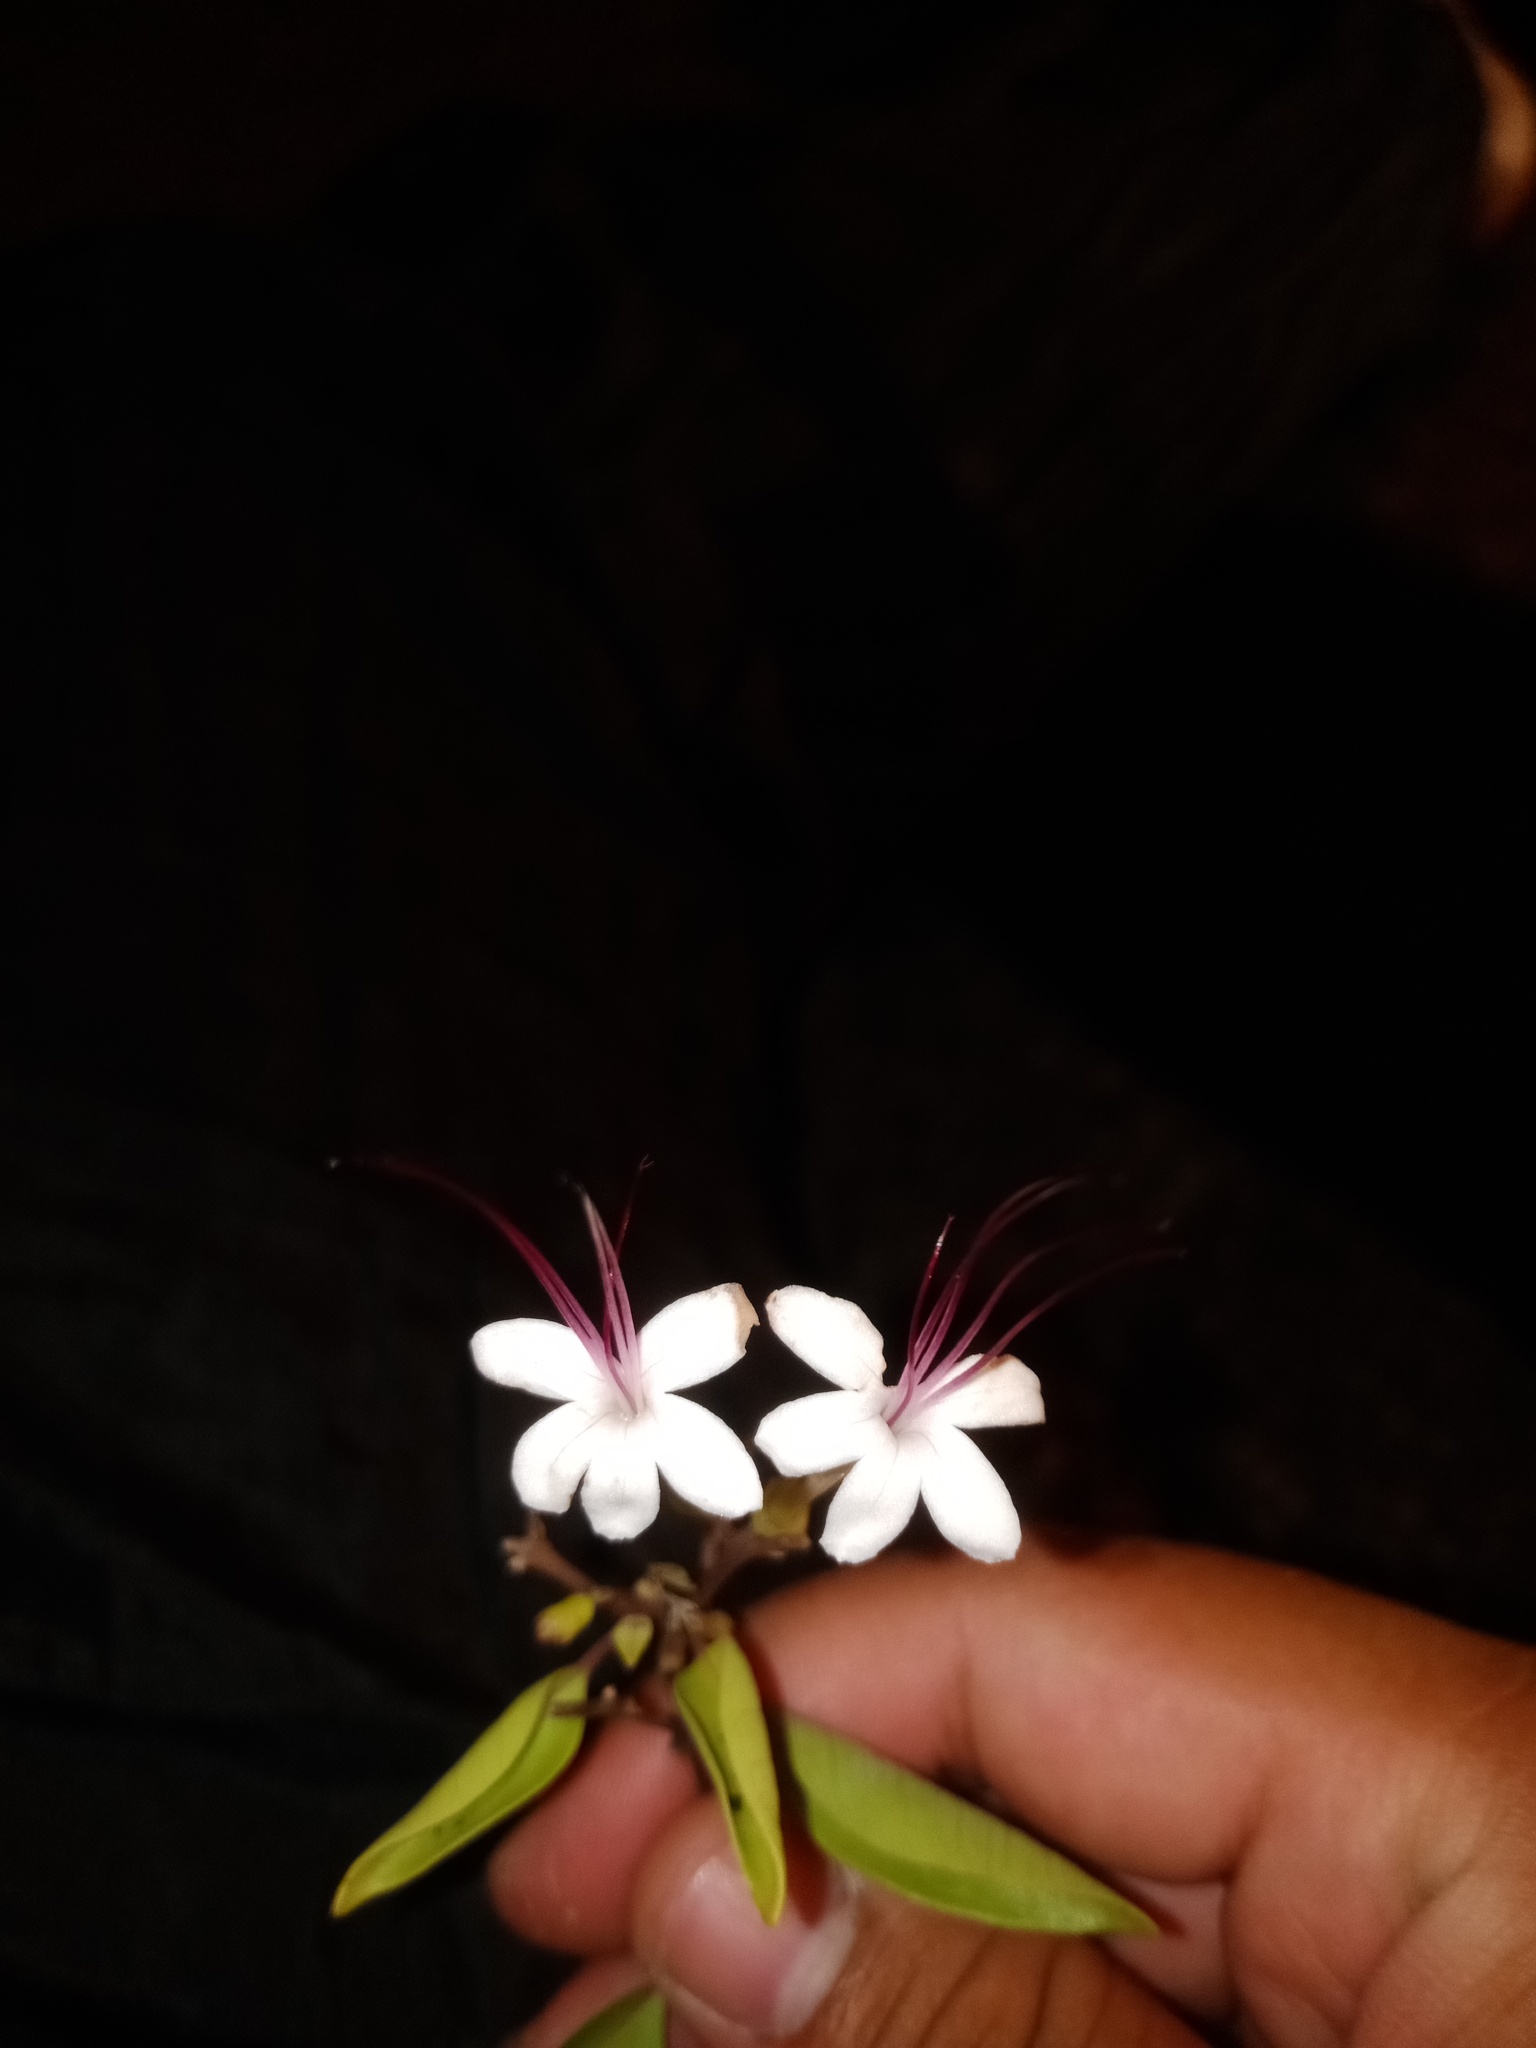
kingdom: Plantae
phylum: Tracheophyta
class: Magnoliopsida
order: Lamiales
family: Lamiaceae
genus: Volkameria
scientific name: Volkameria inermis
